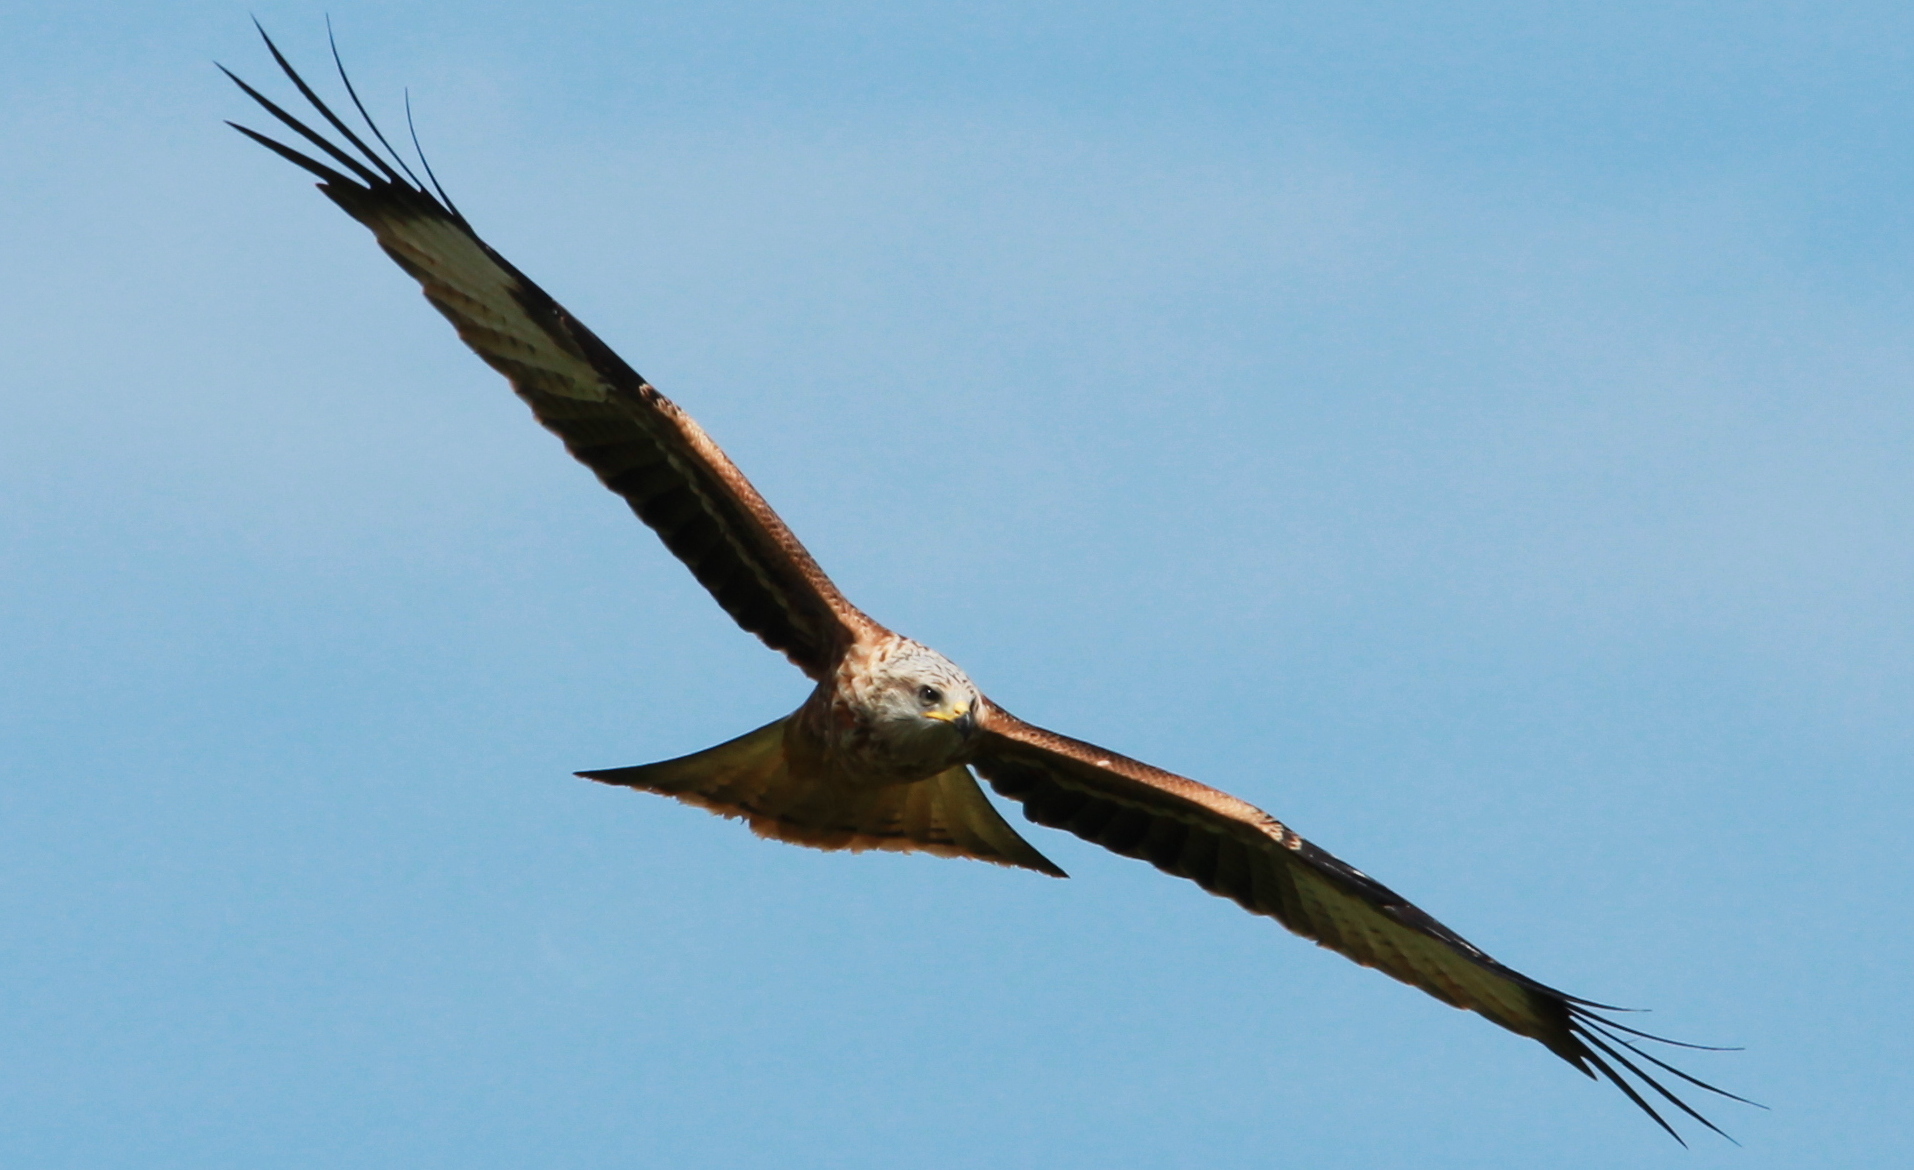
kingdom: Animalia
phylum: Chordata
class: Aves
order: Accipitriformes
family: Accipitridae
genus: Milvus
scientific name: Milvus milvus
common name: Red kite
